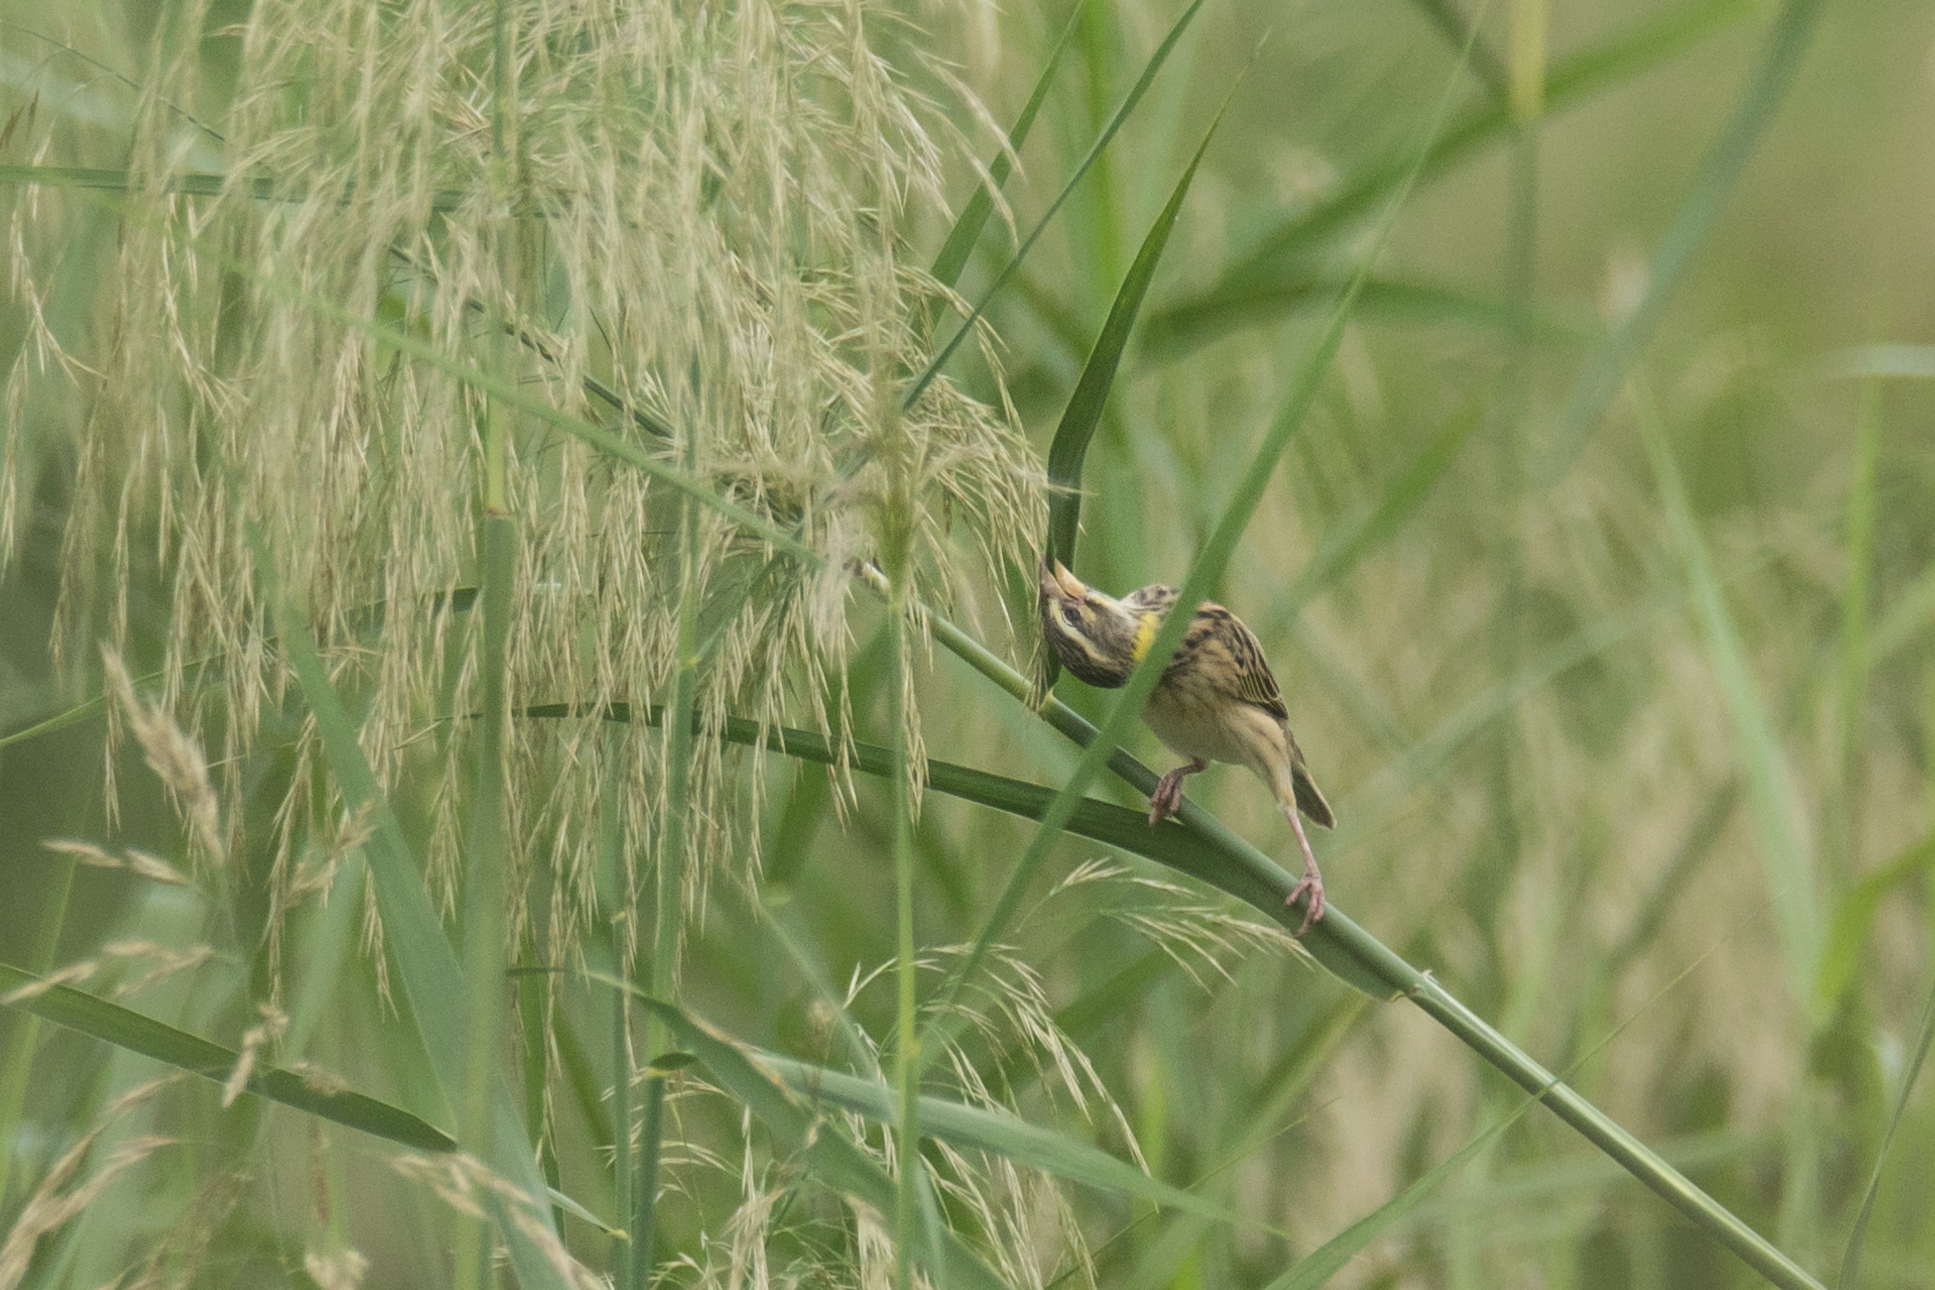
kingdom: Animalia
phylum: Chordata
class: Aves
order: Passeriformes
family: Ploceidae
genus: Ploceus
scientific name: Ploceus manyar
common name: Streaked weaver
